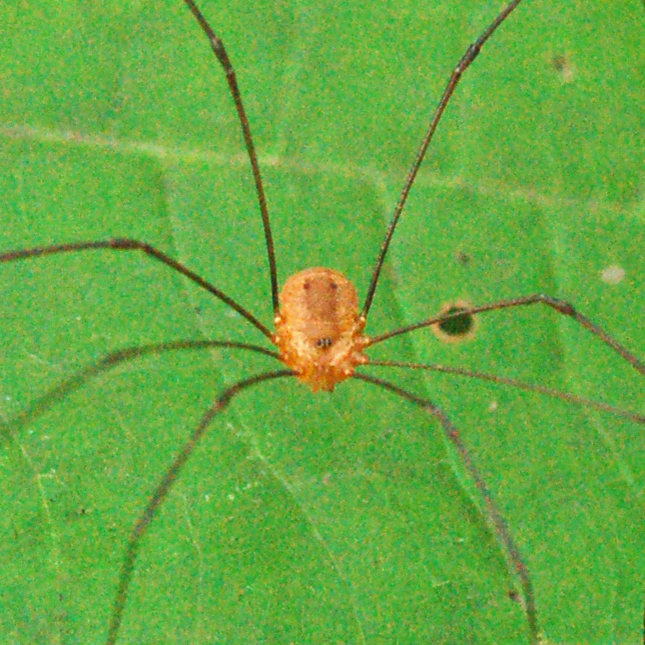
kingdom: Animalia
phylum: Arthropoda
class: Arachnida
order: Opiliones
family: Sclerosomatidae
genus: Leiobunum
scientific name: Leiobunum bracchiolum
